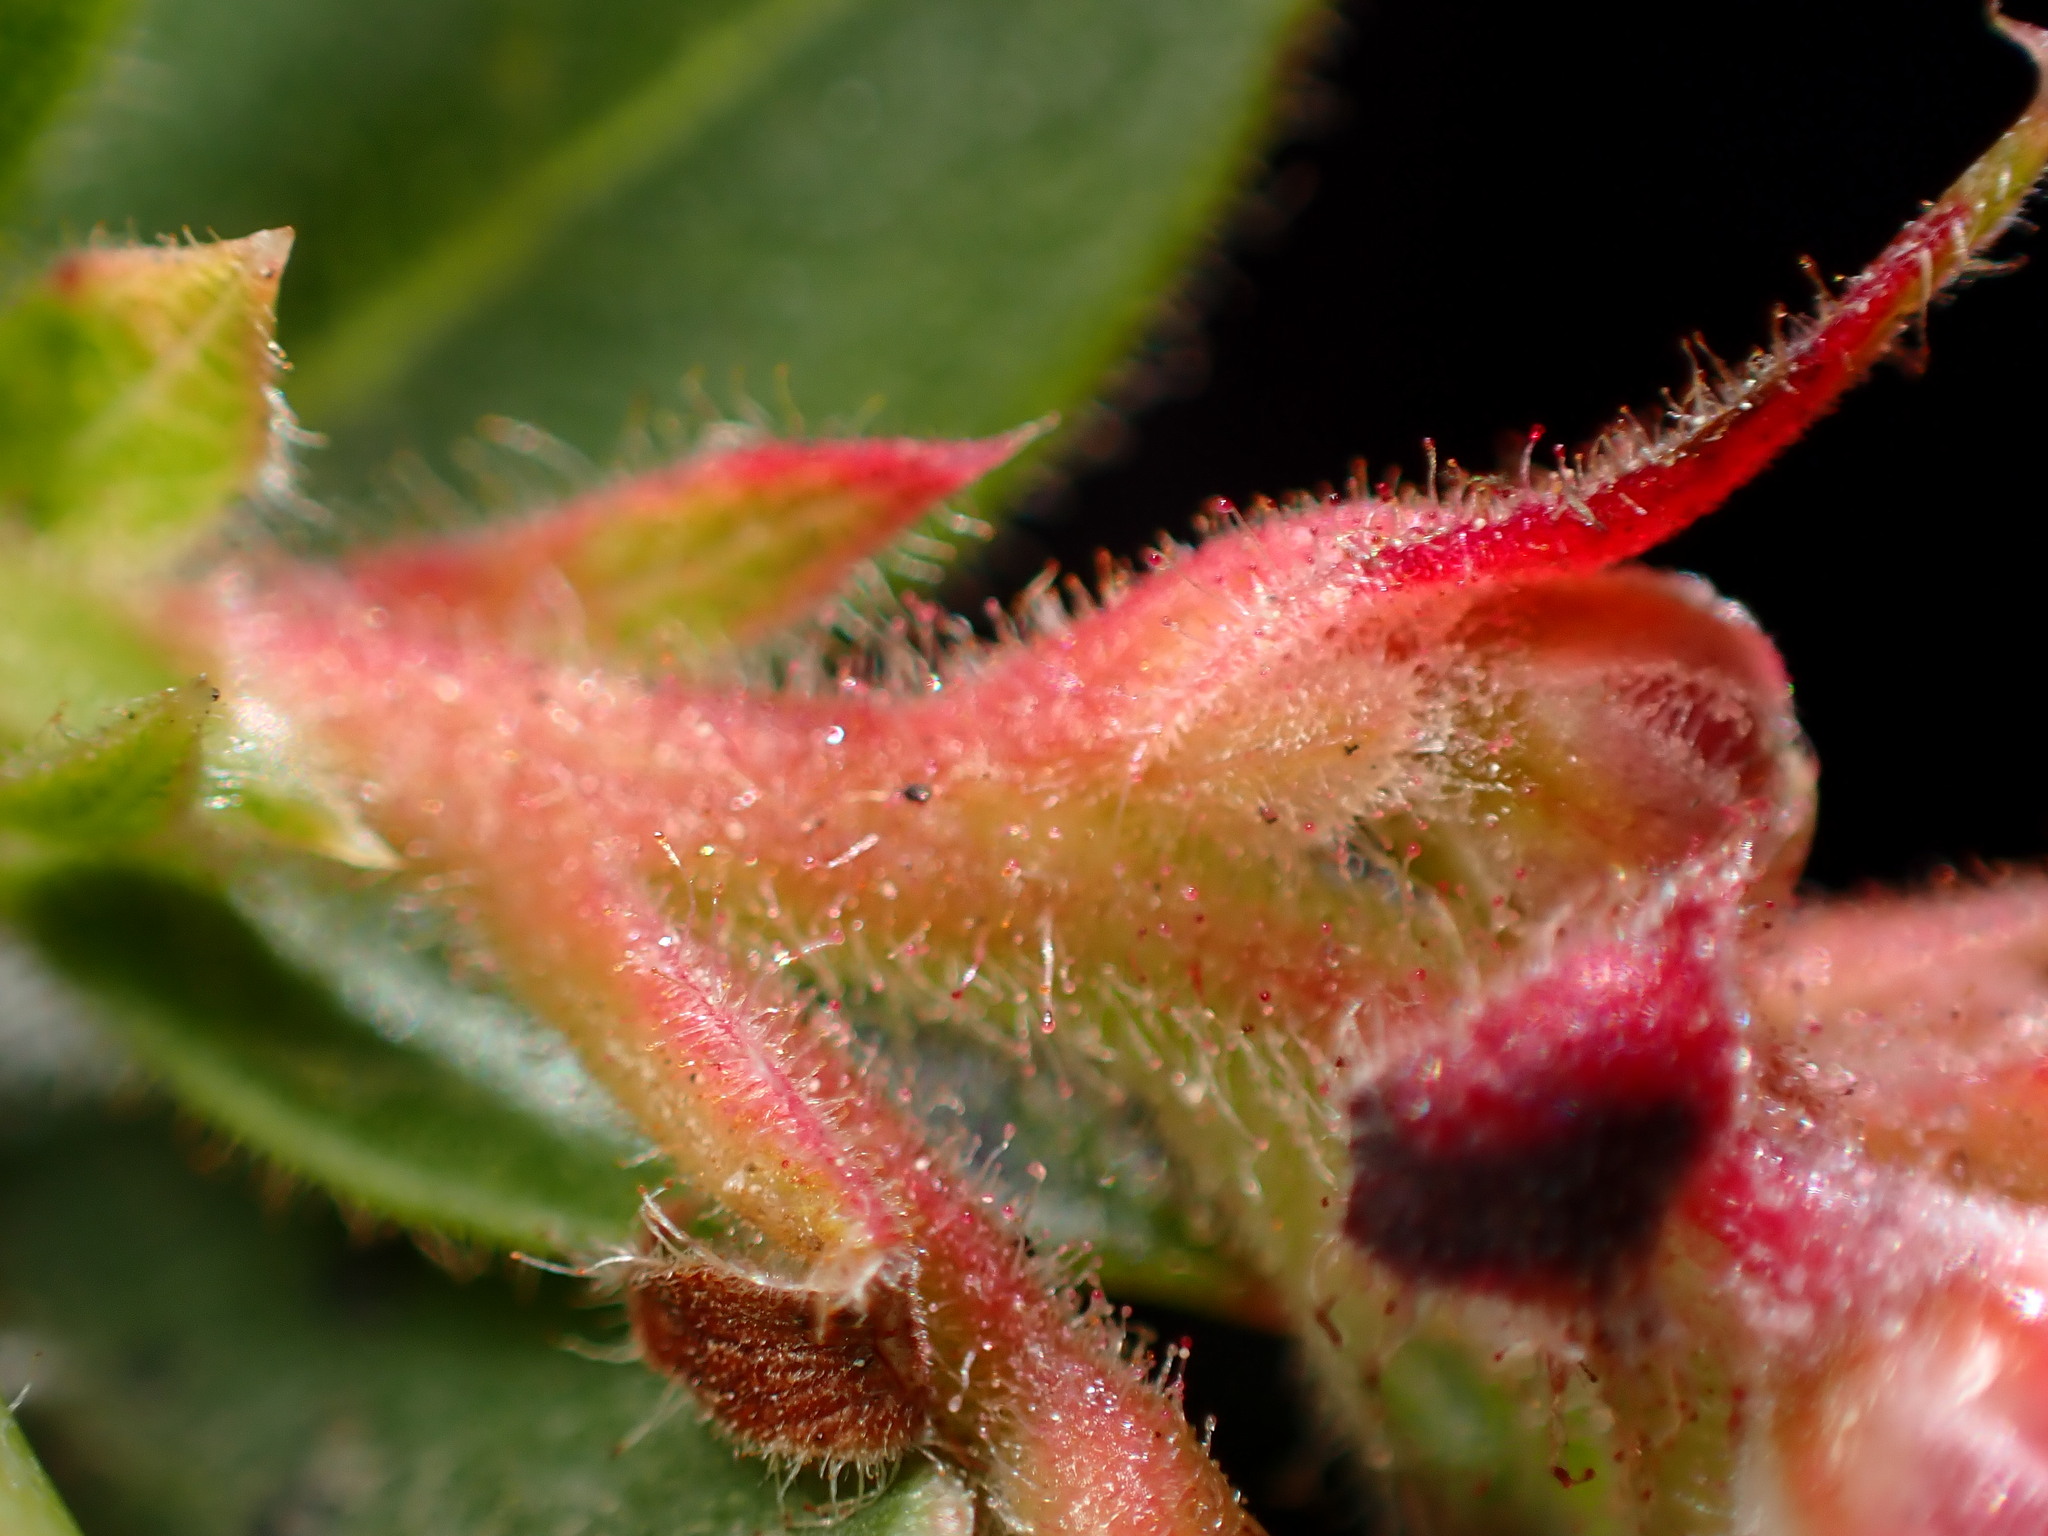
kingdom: Plantae
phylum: Tracheophyta
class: Magnoliopsida
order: Ericales
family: Ericaceae
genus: Arctostaphylos
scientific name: Arctostaphylos imbricata
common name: San bruno mountain manzanita
